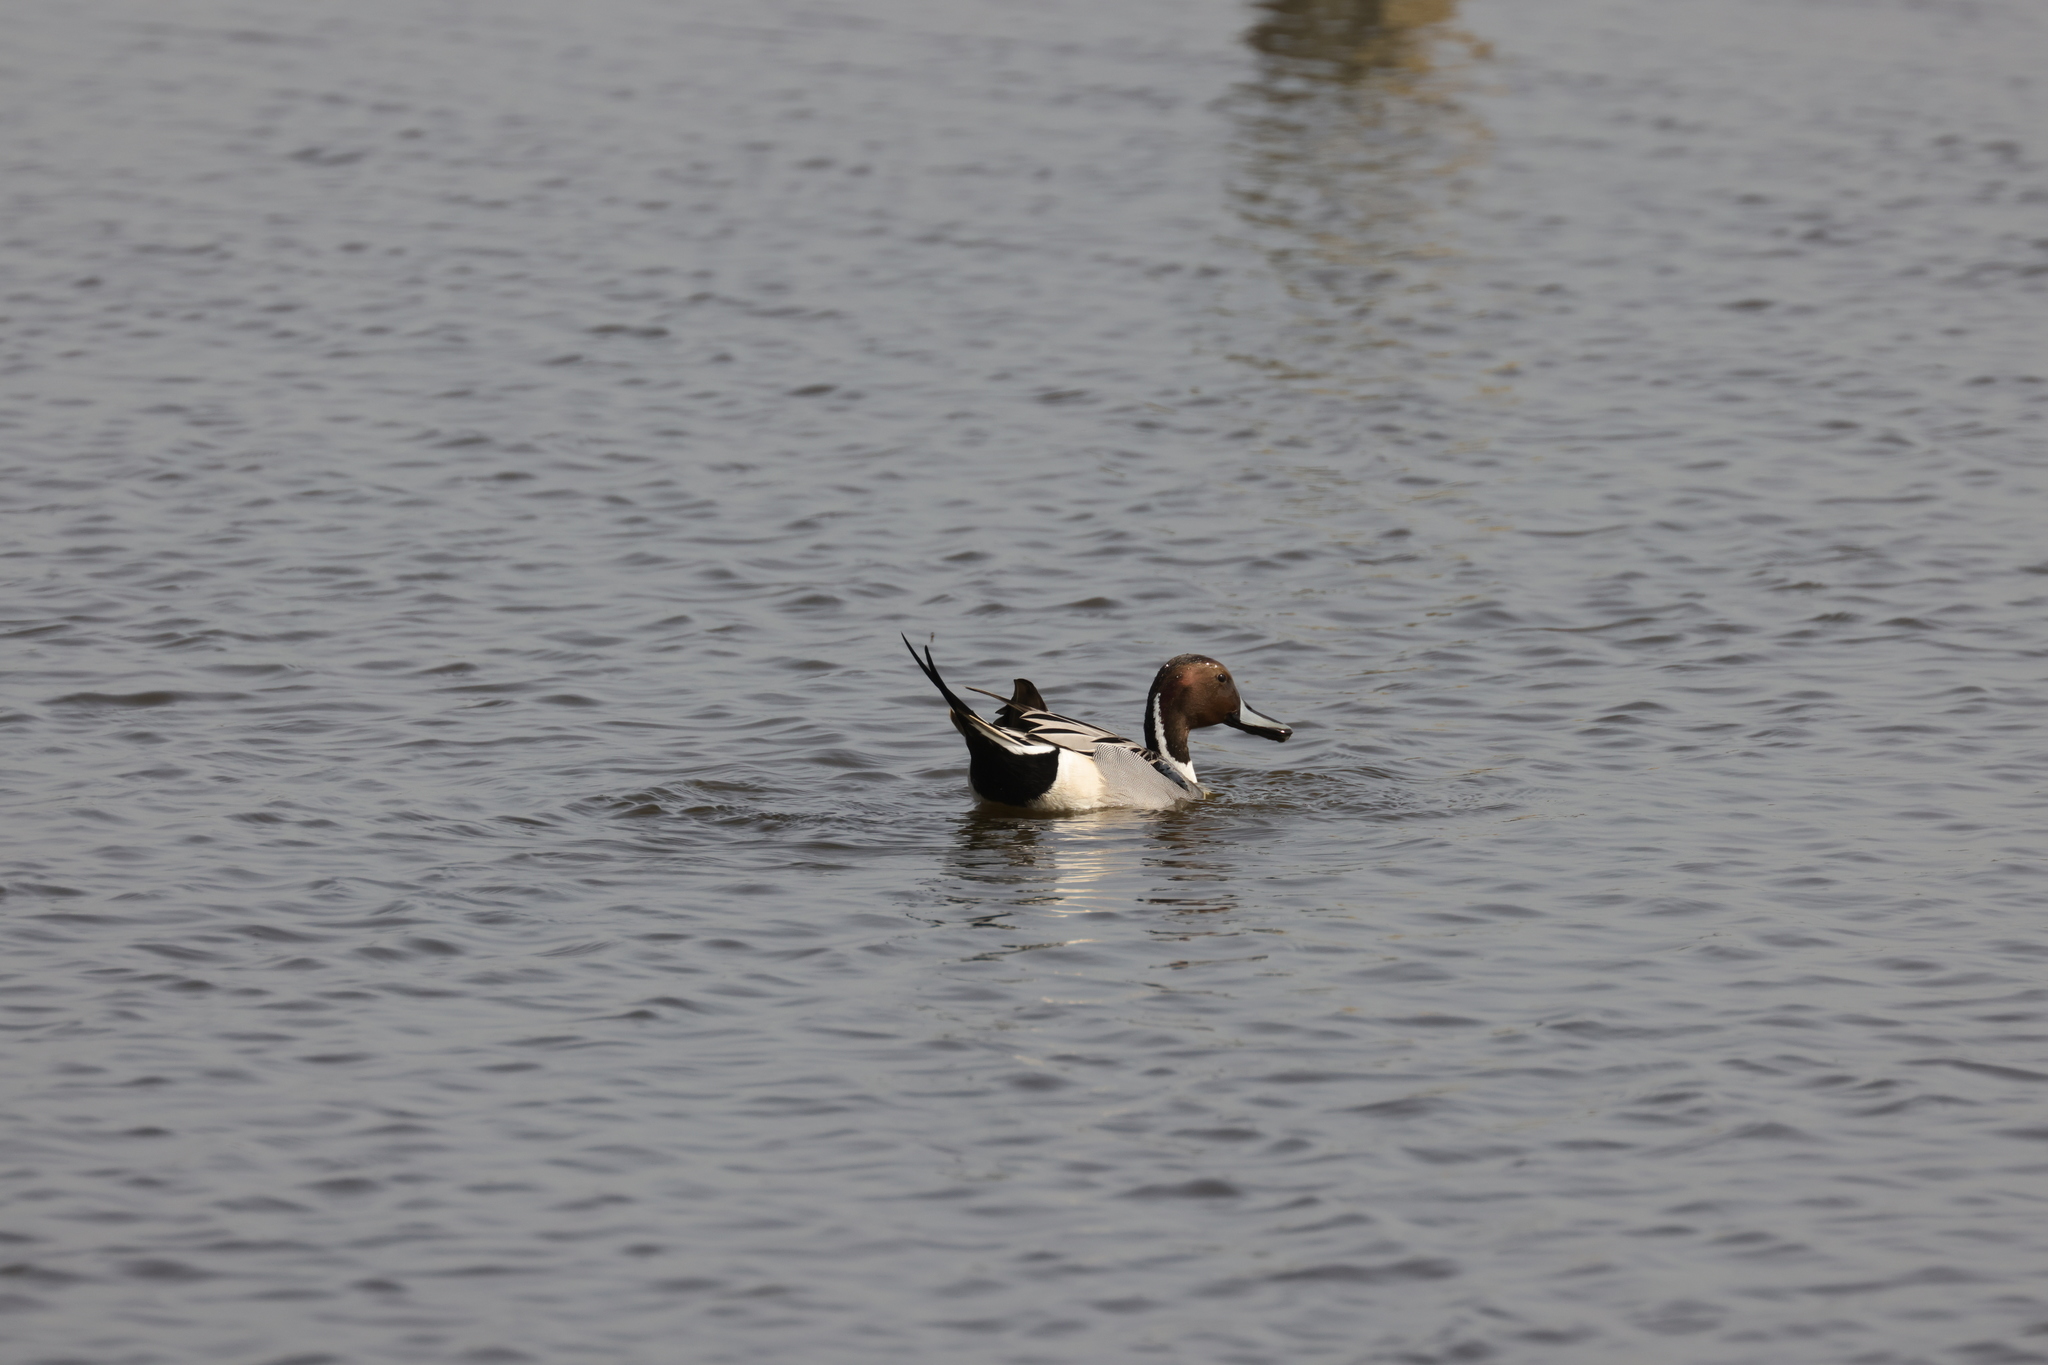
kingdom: Animalia
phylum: Chordata
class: Aves
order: Anseriformes
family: Anatidae
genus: Anas
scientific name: Anas acuta
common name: Northern pintail
